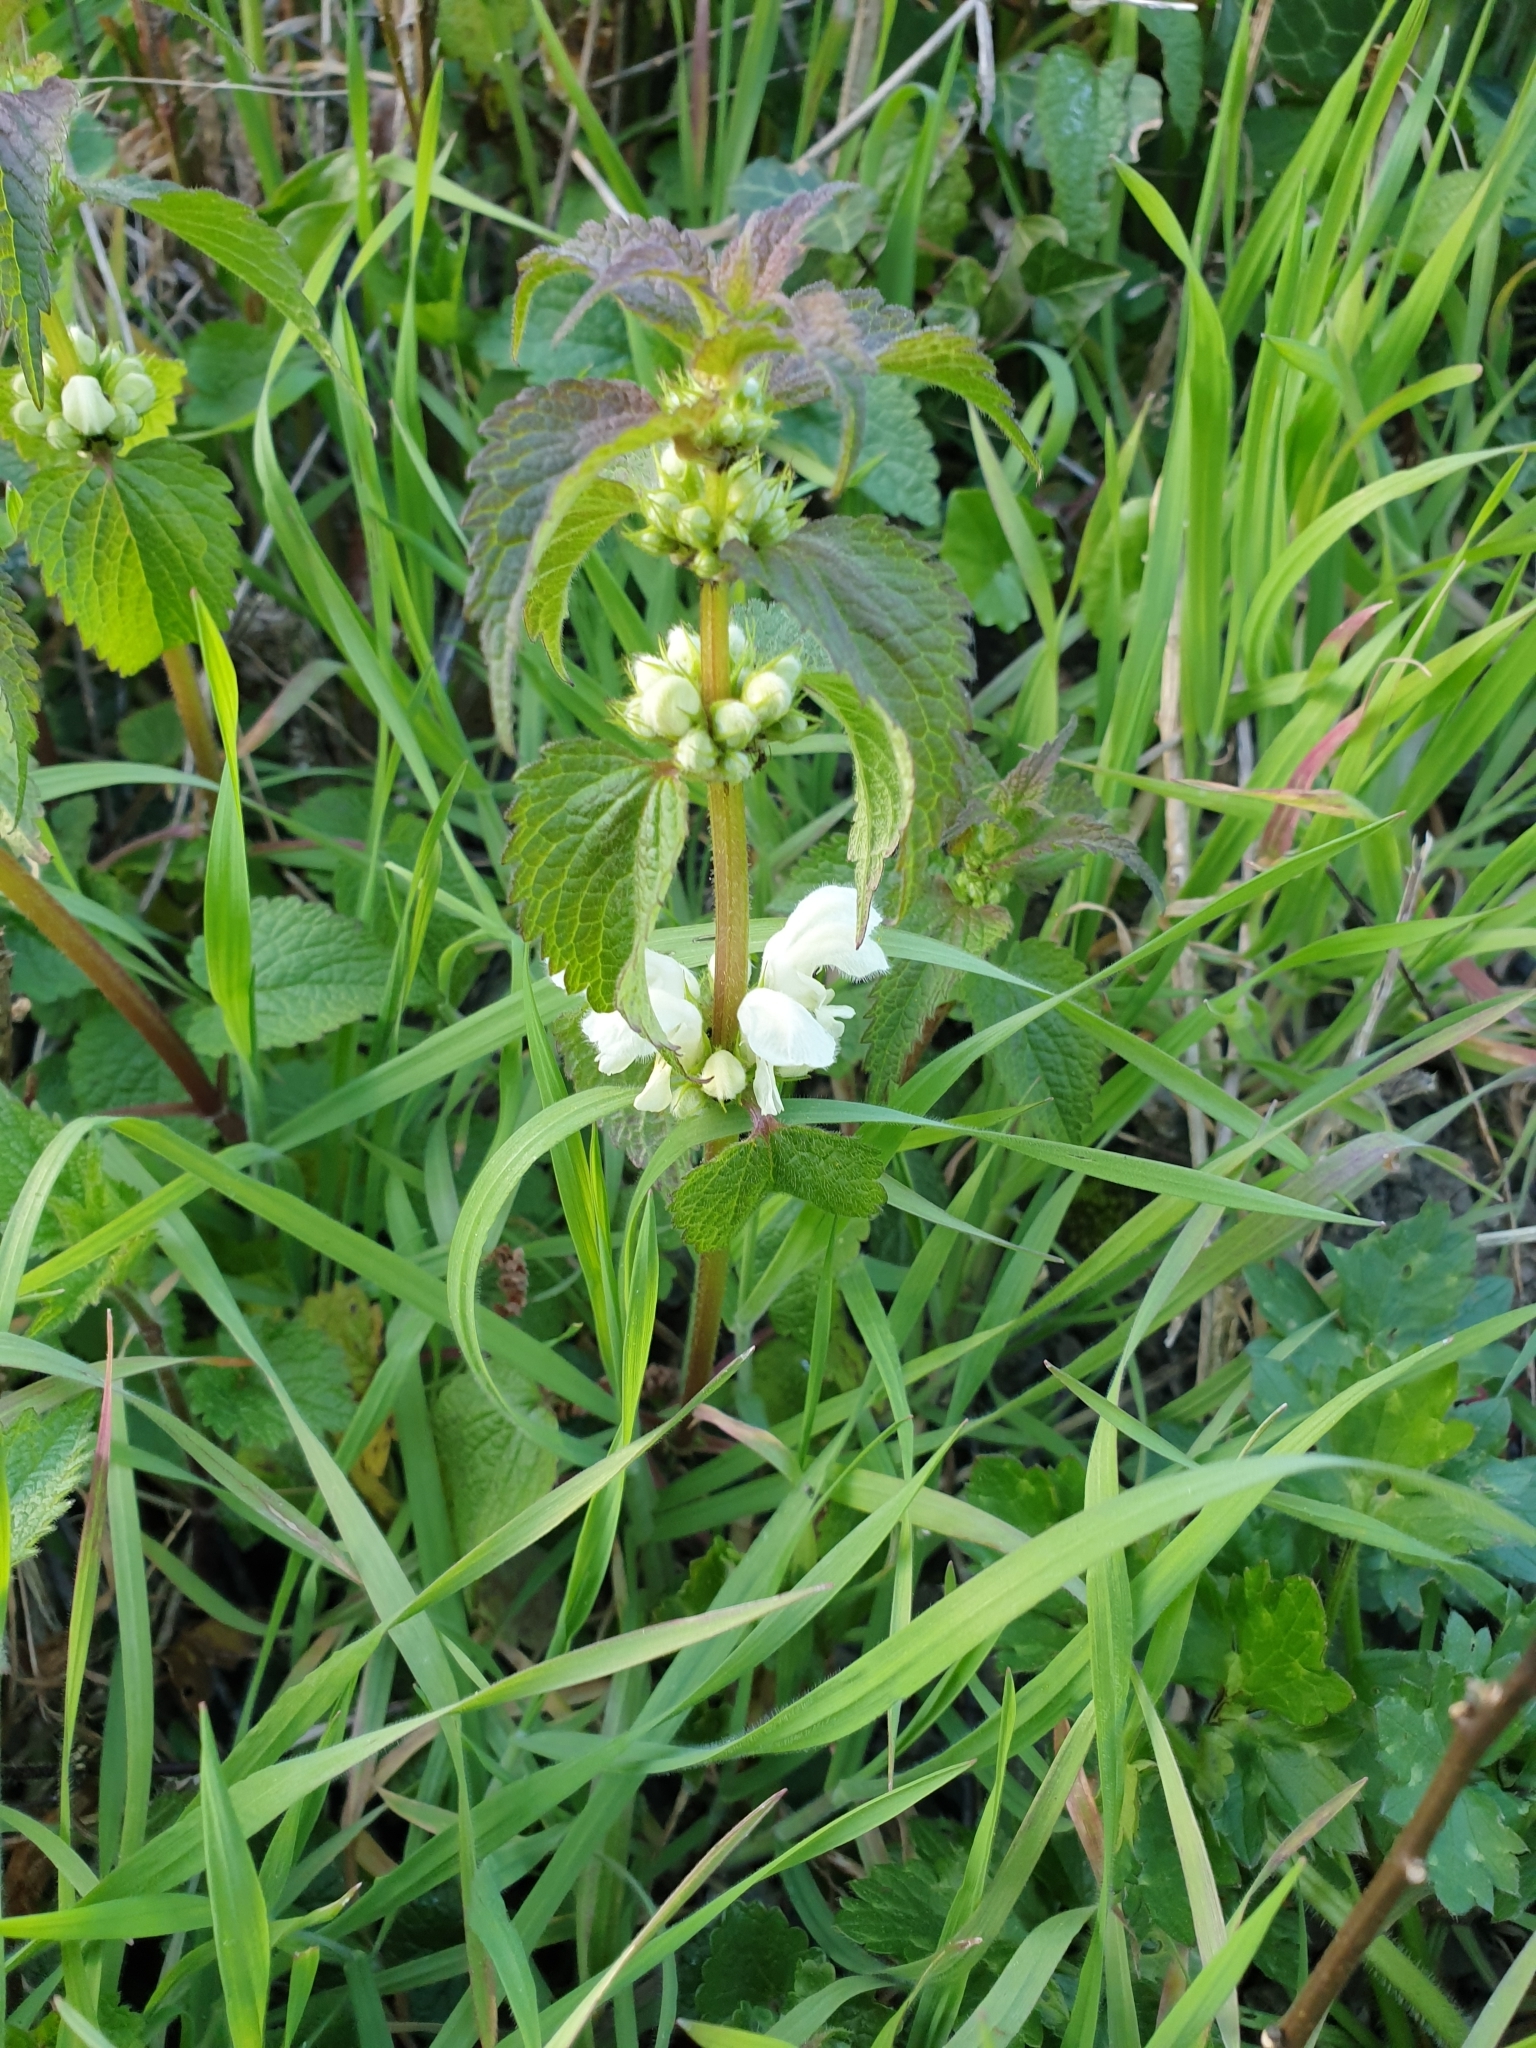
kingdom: Plantae
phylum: Tracheophyta
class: Magnoliopsida
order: Lamiales
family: Lamiaceae
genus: Lamium
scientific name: Lamium album
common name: White dead-nettle
